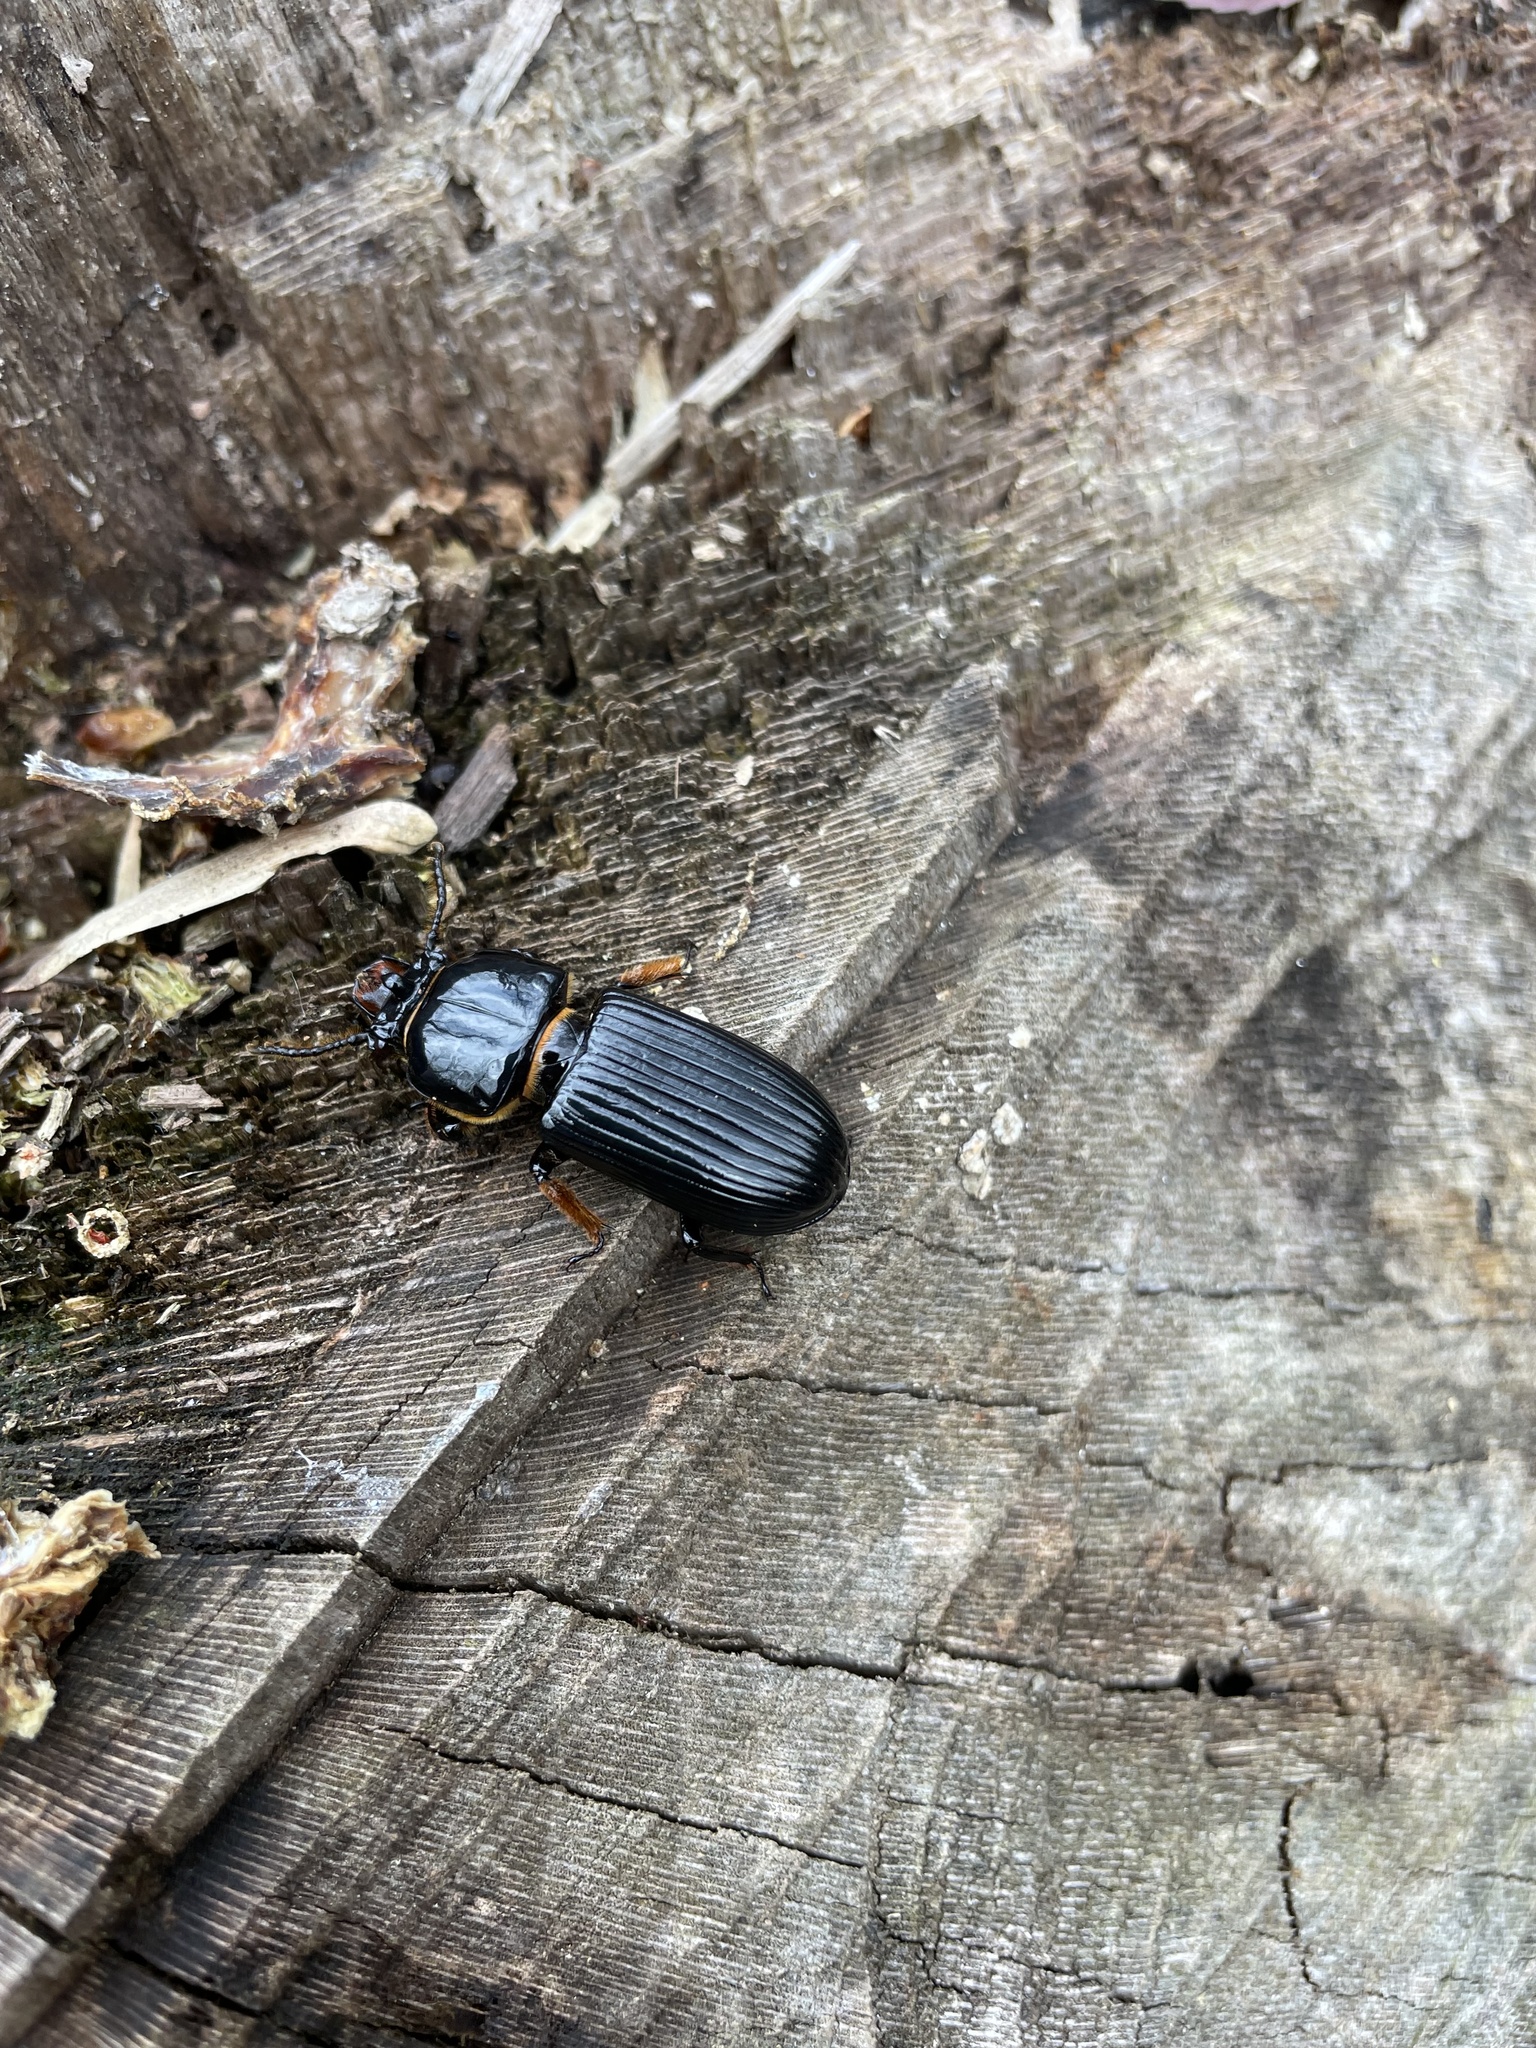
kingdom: Animalia
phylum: Arthropoda
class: Insecta
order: Coleoptera
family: Passalidae
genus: Odontotaenius
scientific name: Odontotaenius disjunctus
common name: Patent leather beetle
